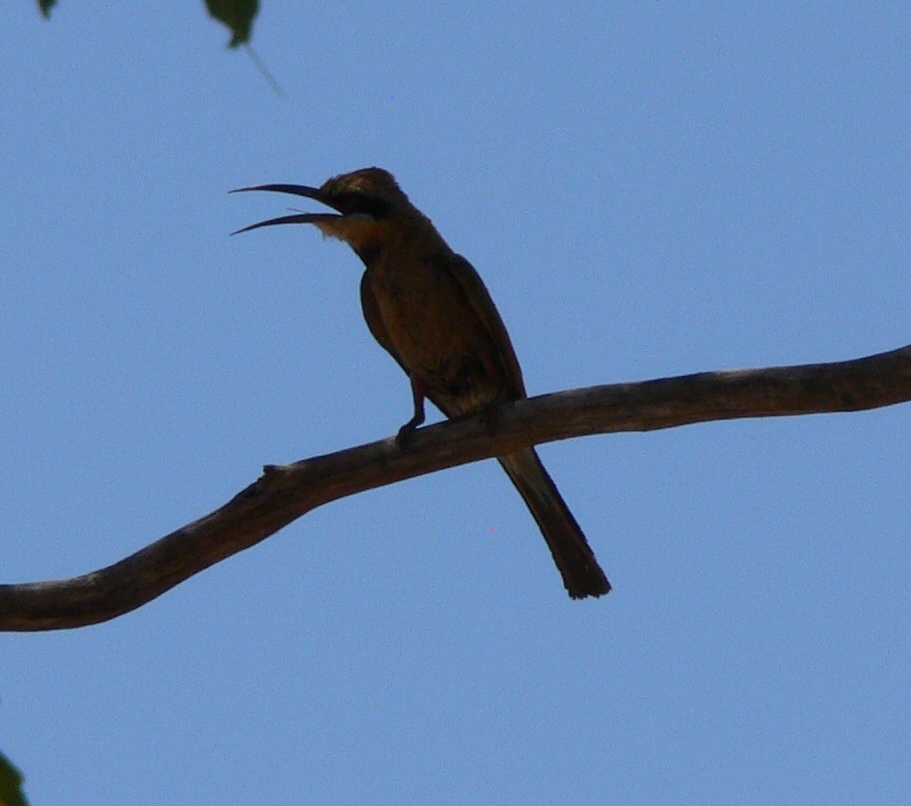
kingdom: Animalia
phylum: Chordata
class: Aves
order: Coraciiformes
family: Meropidae
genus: Merops
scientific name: Merops ornatus
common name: Rainbow bee-eater
